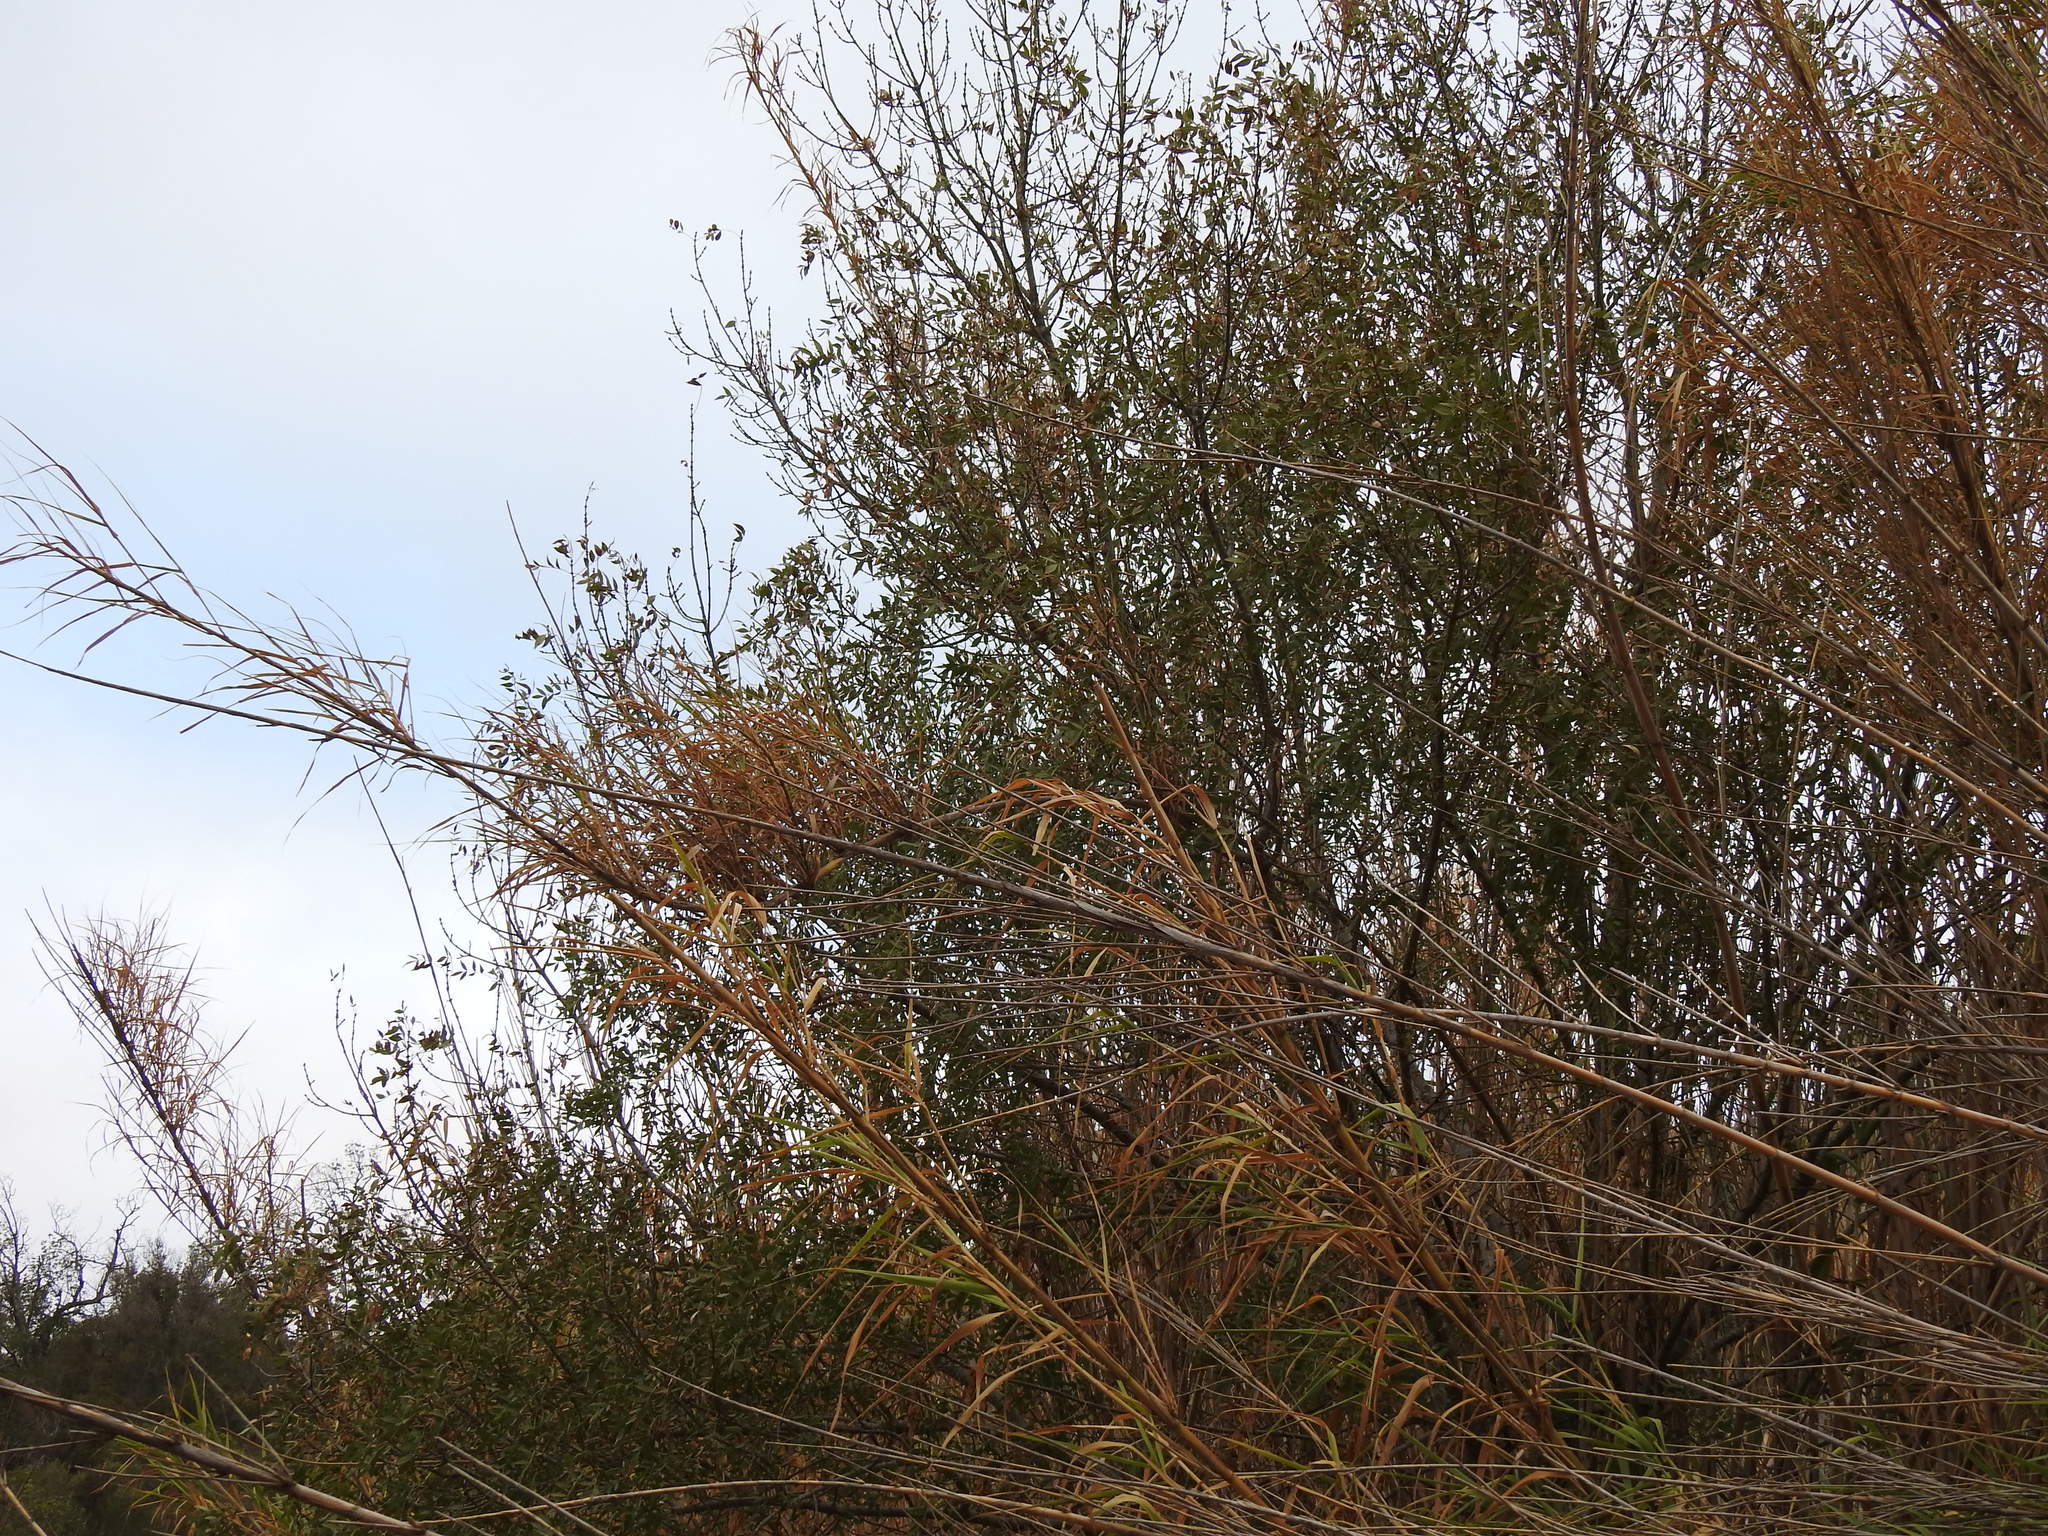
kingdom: Plantae
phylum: Tracheophyta
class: Magnoliopsida
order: Lamiales
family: Oleaceae
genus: Fraxinus
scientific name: Fraxinus angustifolia
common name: Narrow-leafed ash
